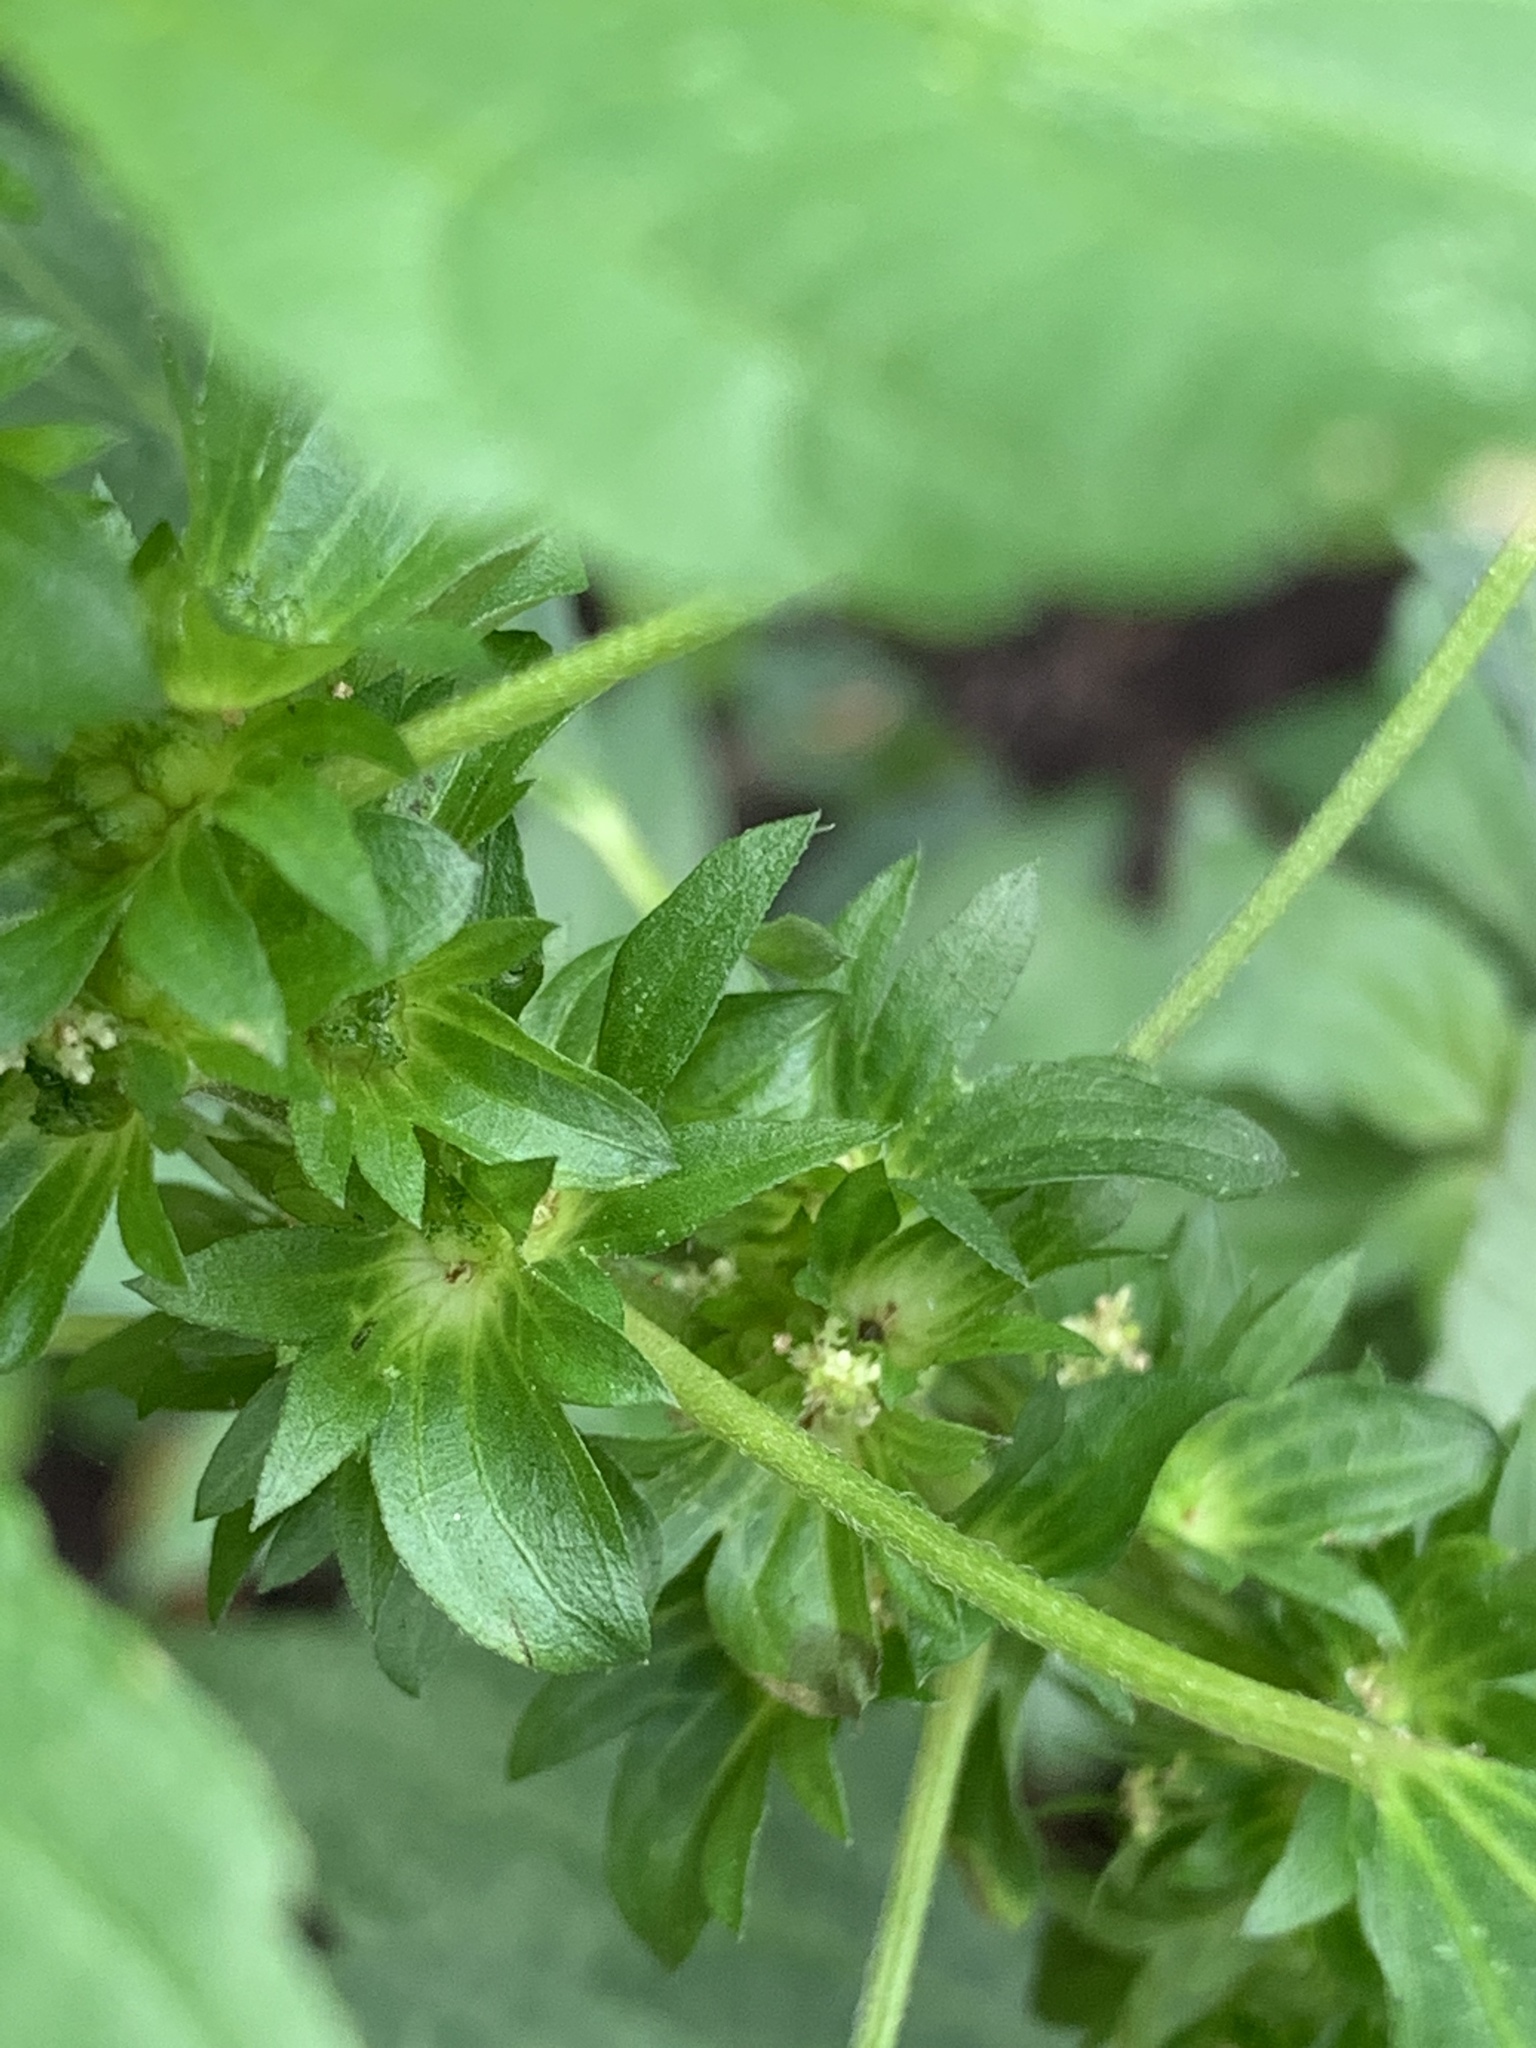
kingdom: Plantae
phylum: Tracheophyta
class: Magnoliopsida
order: Malpighiales
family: Euphorbiaceae
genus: Acalypha
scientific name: Acalypha rhomboidea
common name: Rhombic copperleaf
